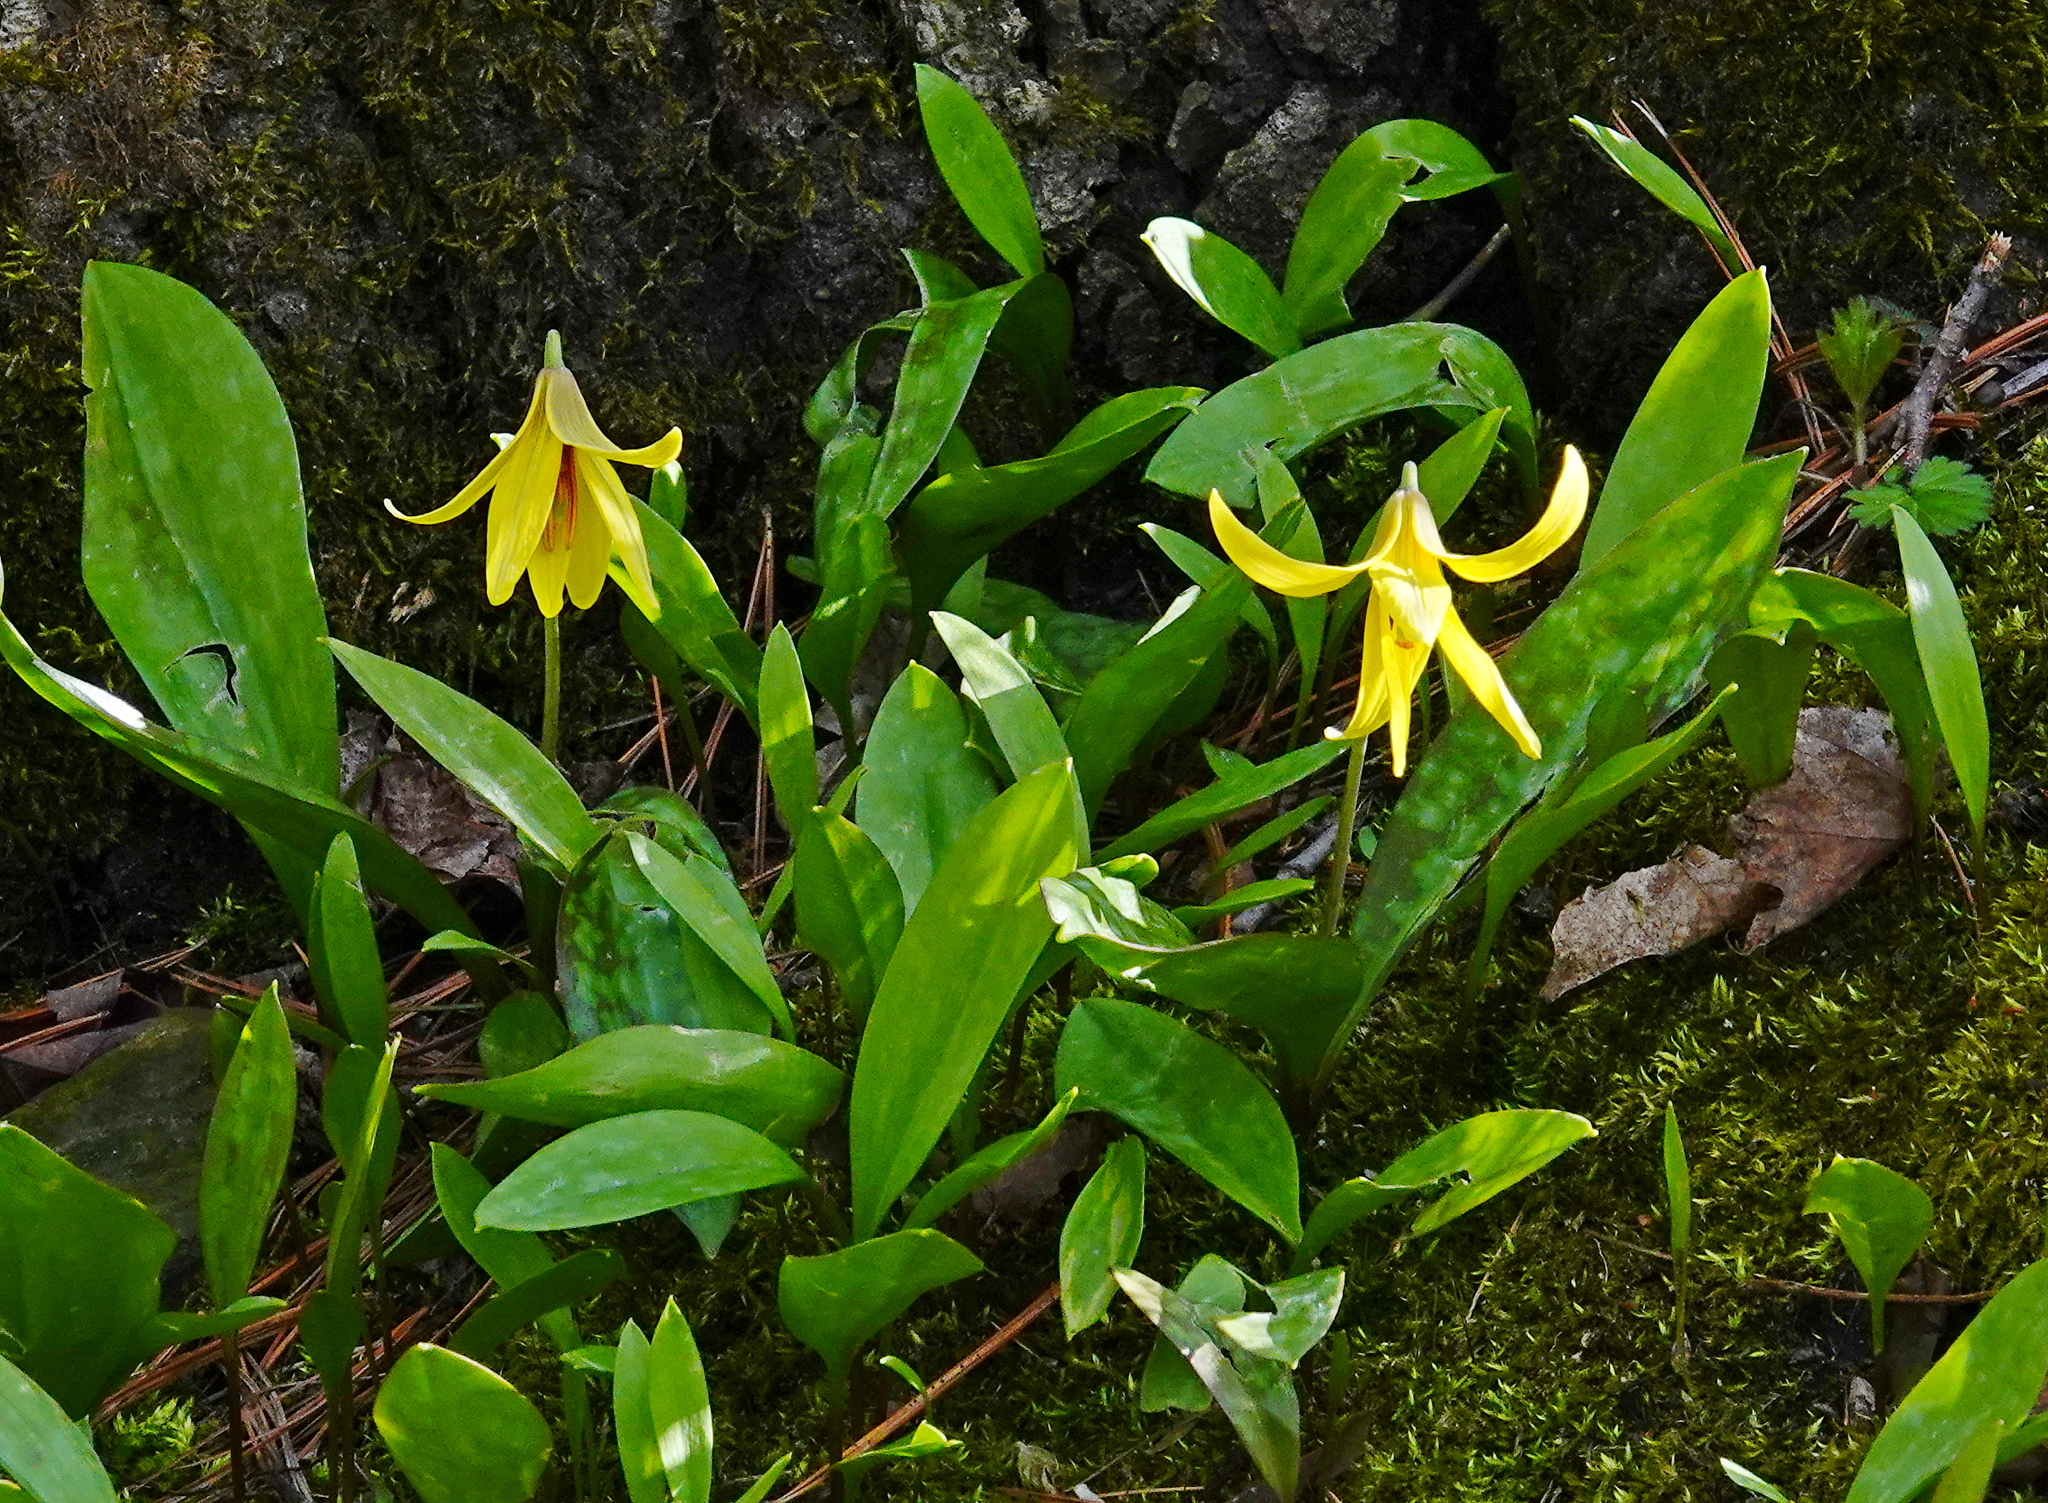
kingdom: Plantae
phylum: Tracheophyta
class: Liliopsida
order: Liliales
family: Liliaceae
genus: Erythronium
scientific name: Erythronium americanum
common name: Yellow adder's-tongue
